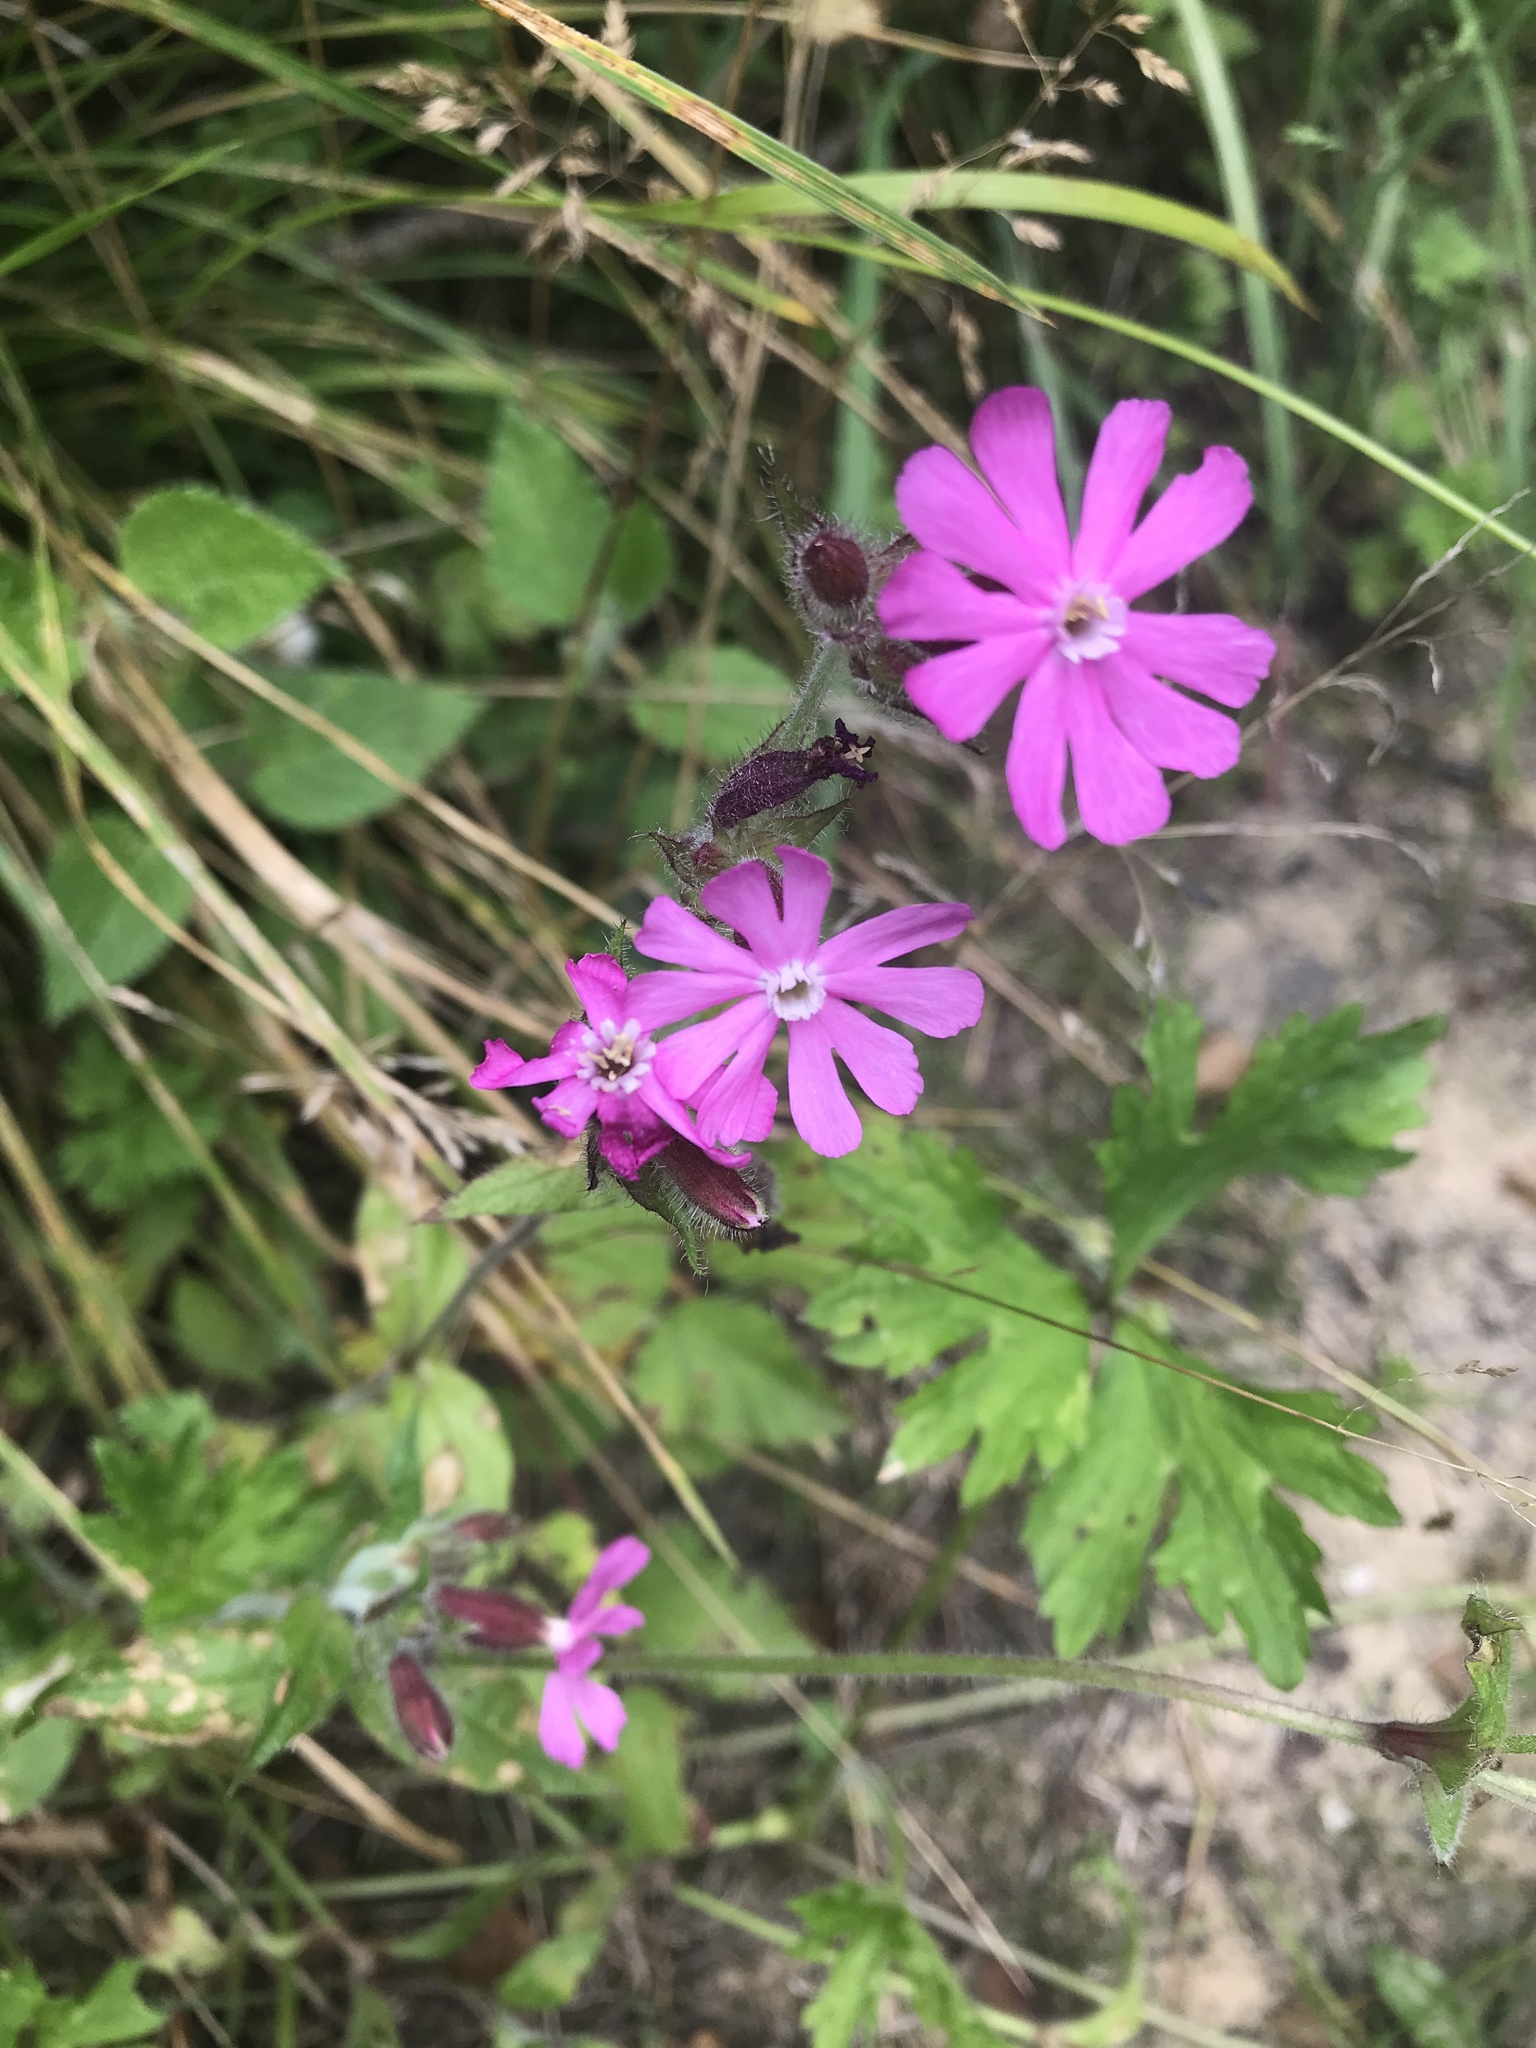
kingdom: Plantae
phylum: Tracheophyta
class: Magnoliopsida
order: Caryophyllales
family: Caryophyllaceae
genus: Silene
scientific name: Silene dioica
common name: Red campion
